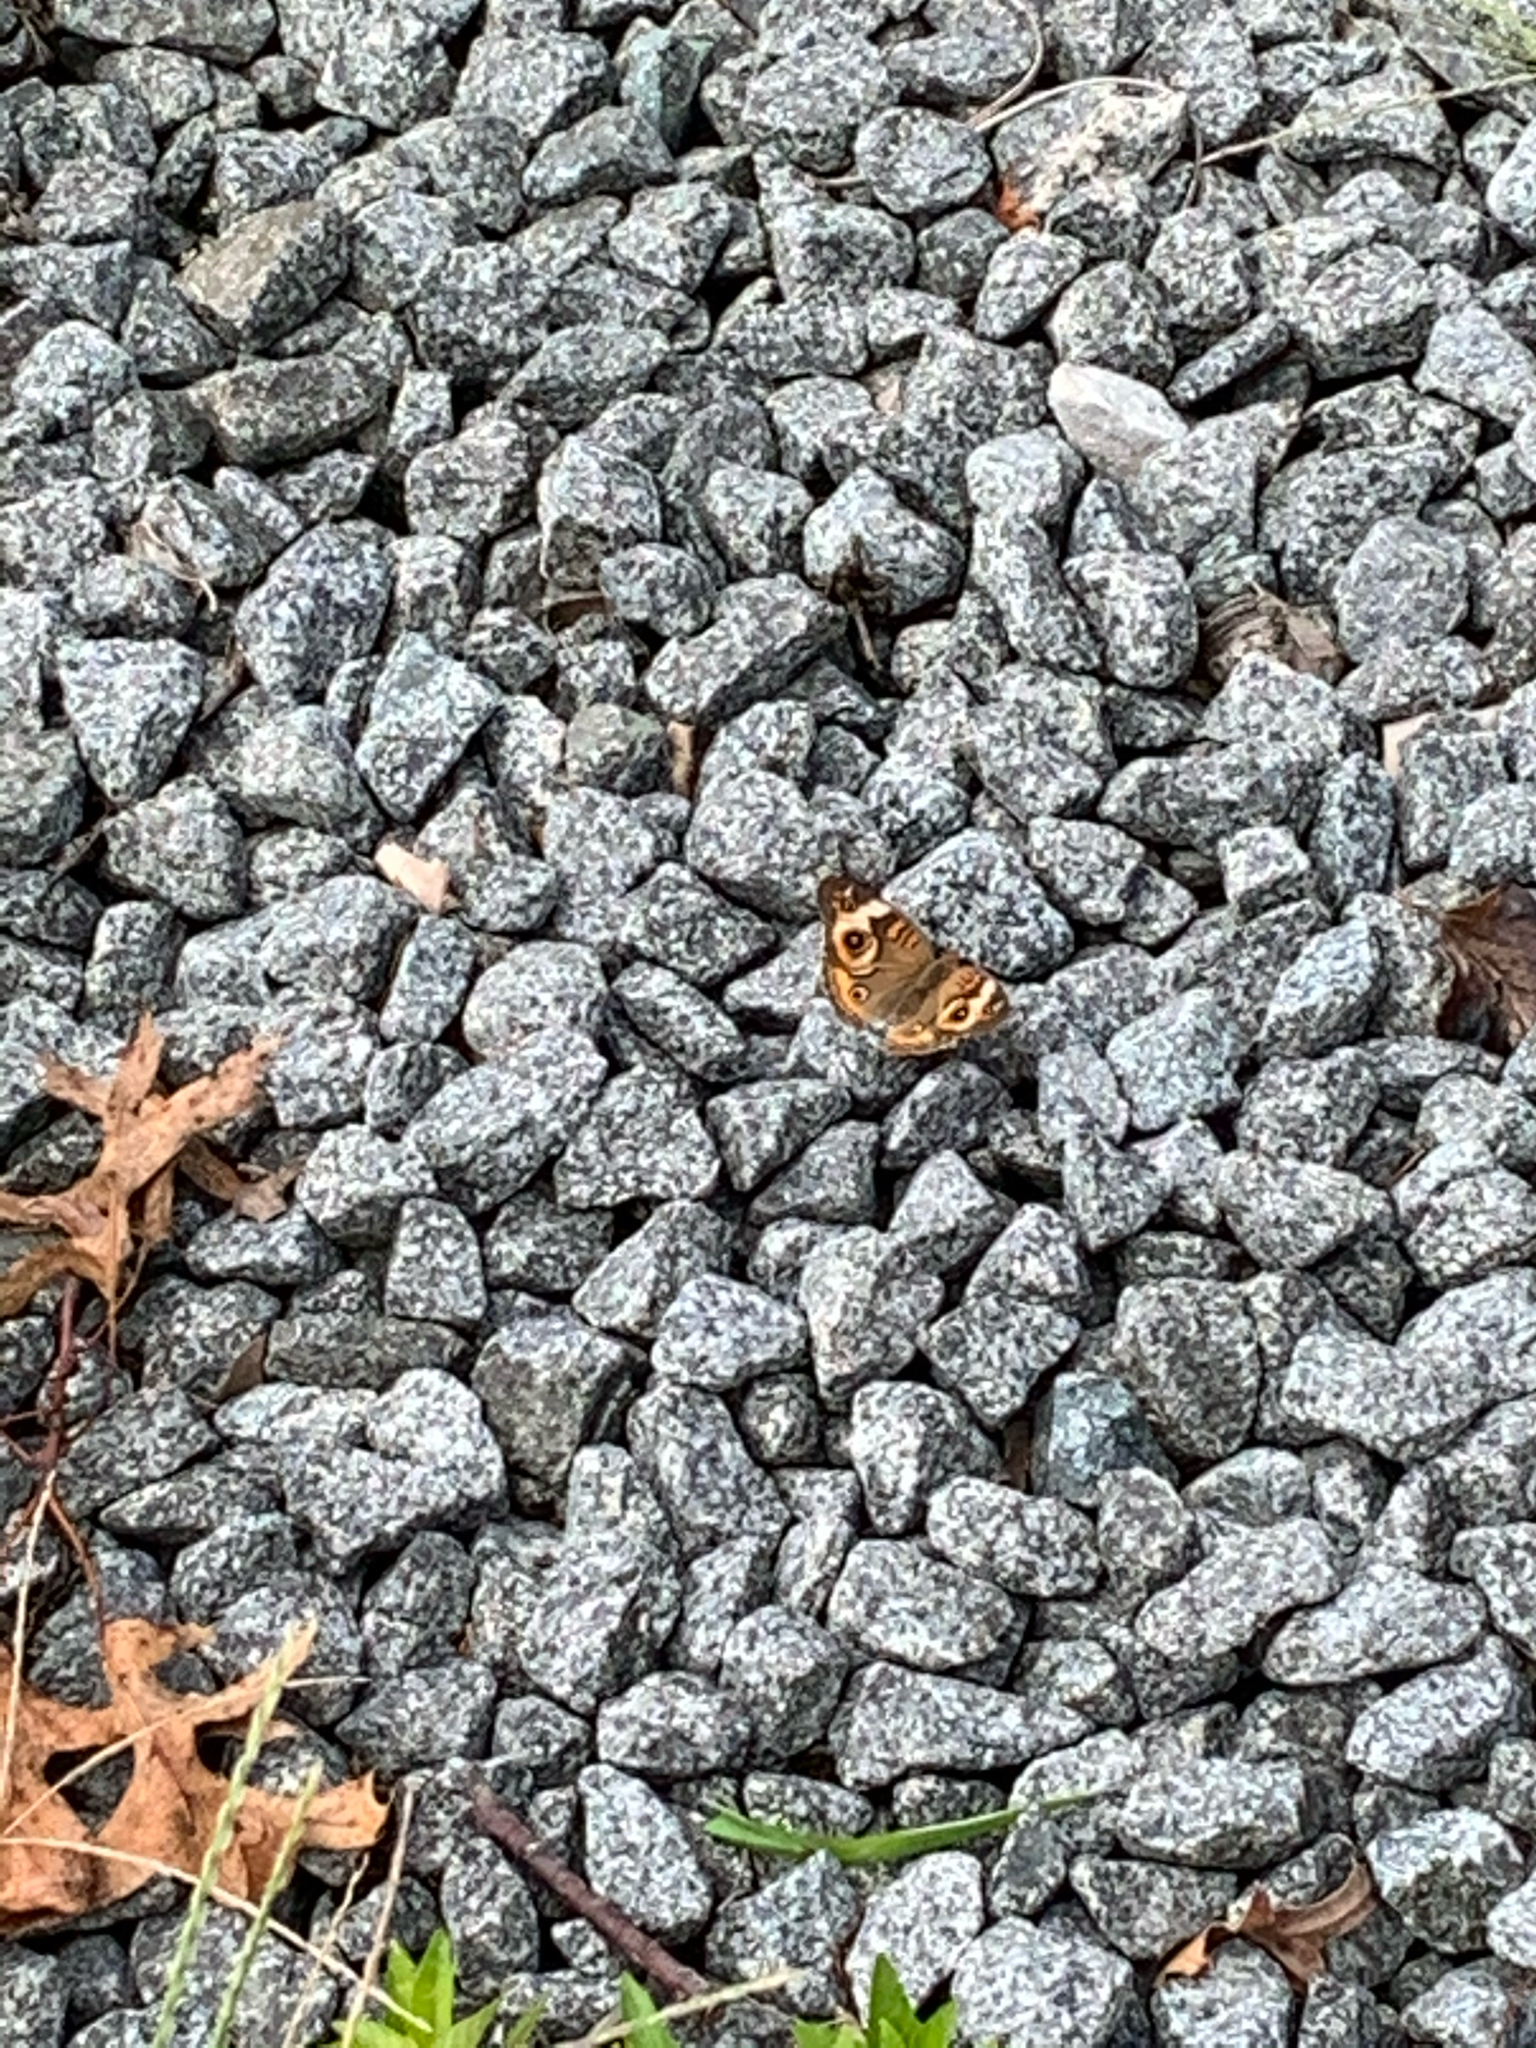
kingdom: Animalia
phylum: Arthropoda
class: Insecta
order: Lepidoptera
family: Nymphalidae
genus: Junonia
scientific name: Junonia coenia
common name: Common buckeye
